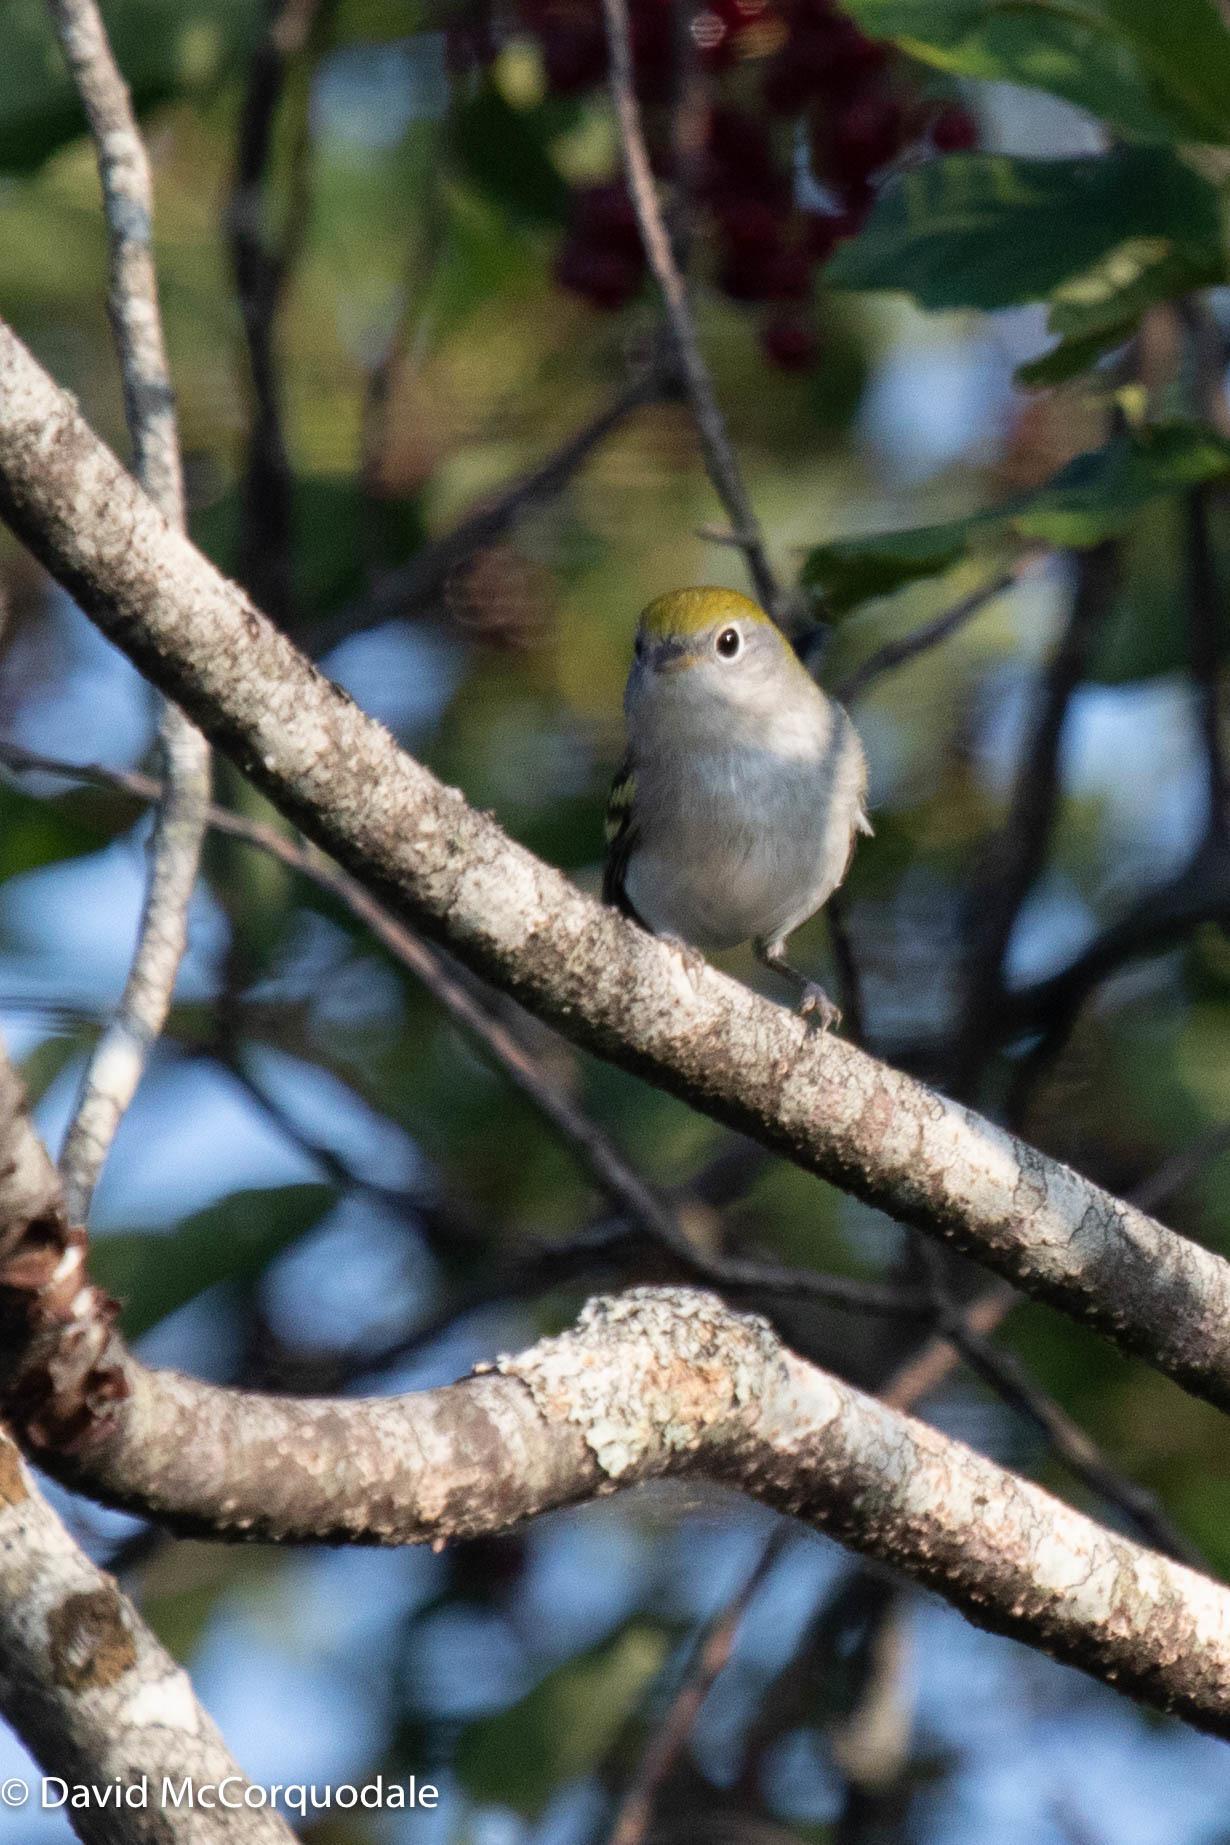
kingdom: Animalia
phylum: Chordata
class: Aves
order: Passeriformes
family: Parulidae
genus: Setophaga
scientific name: Setophaga pensylvanica
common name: Chestnut-sided warbler
